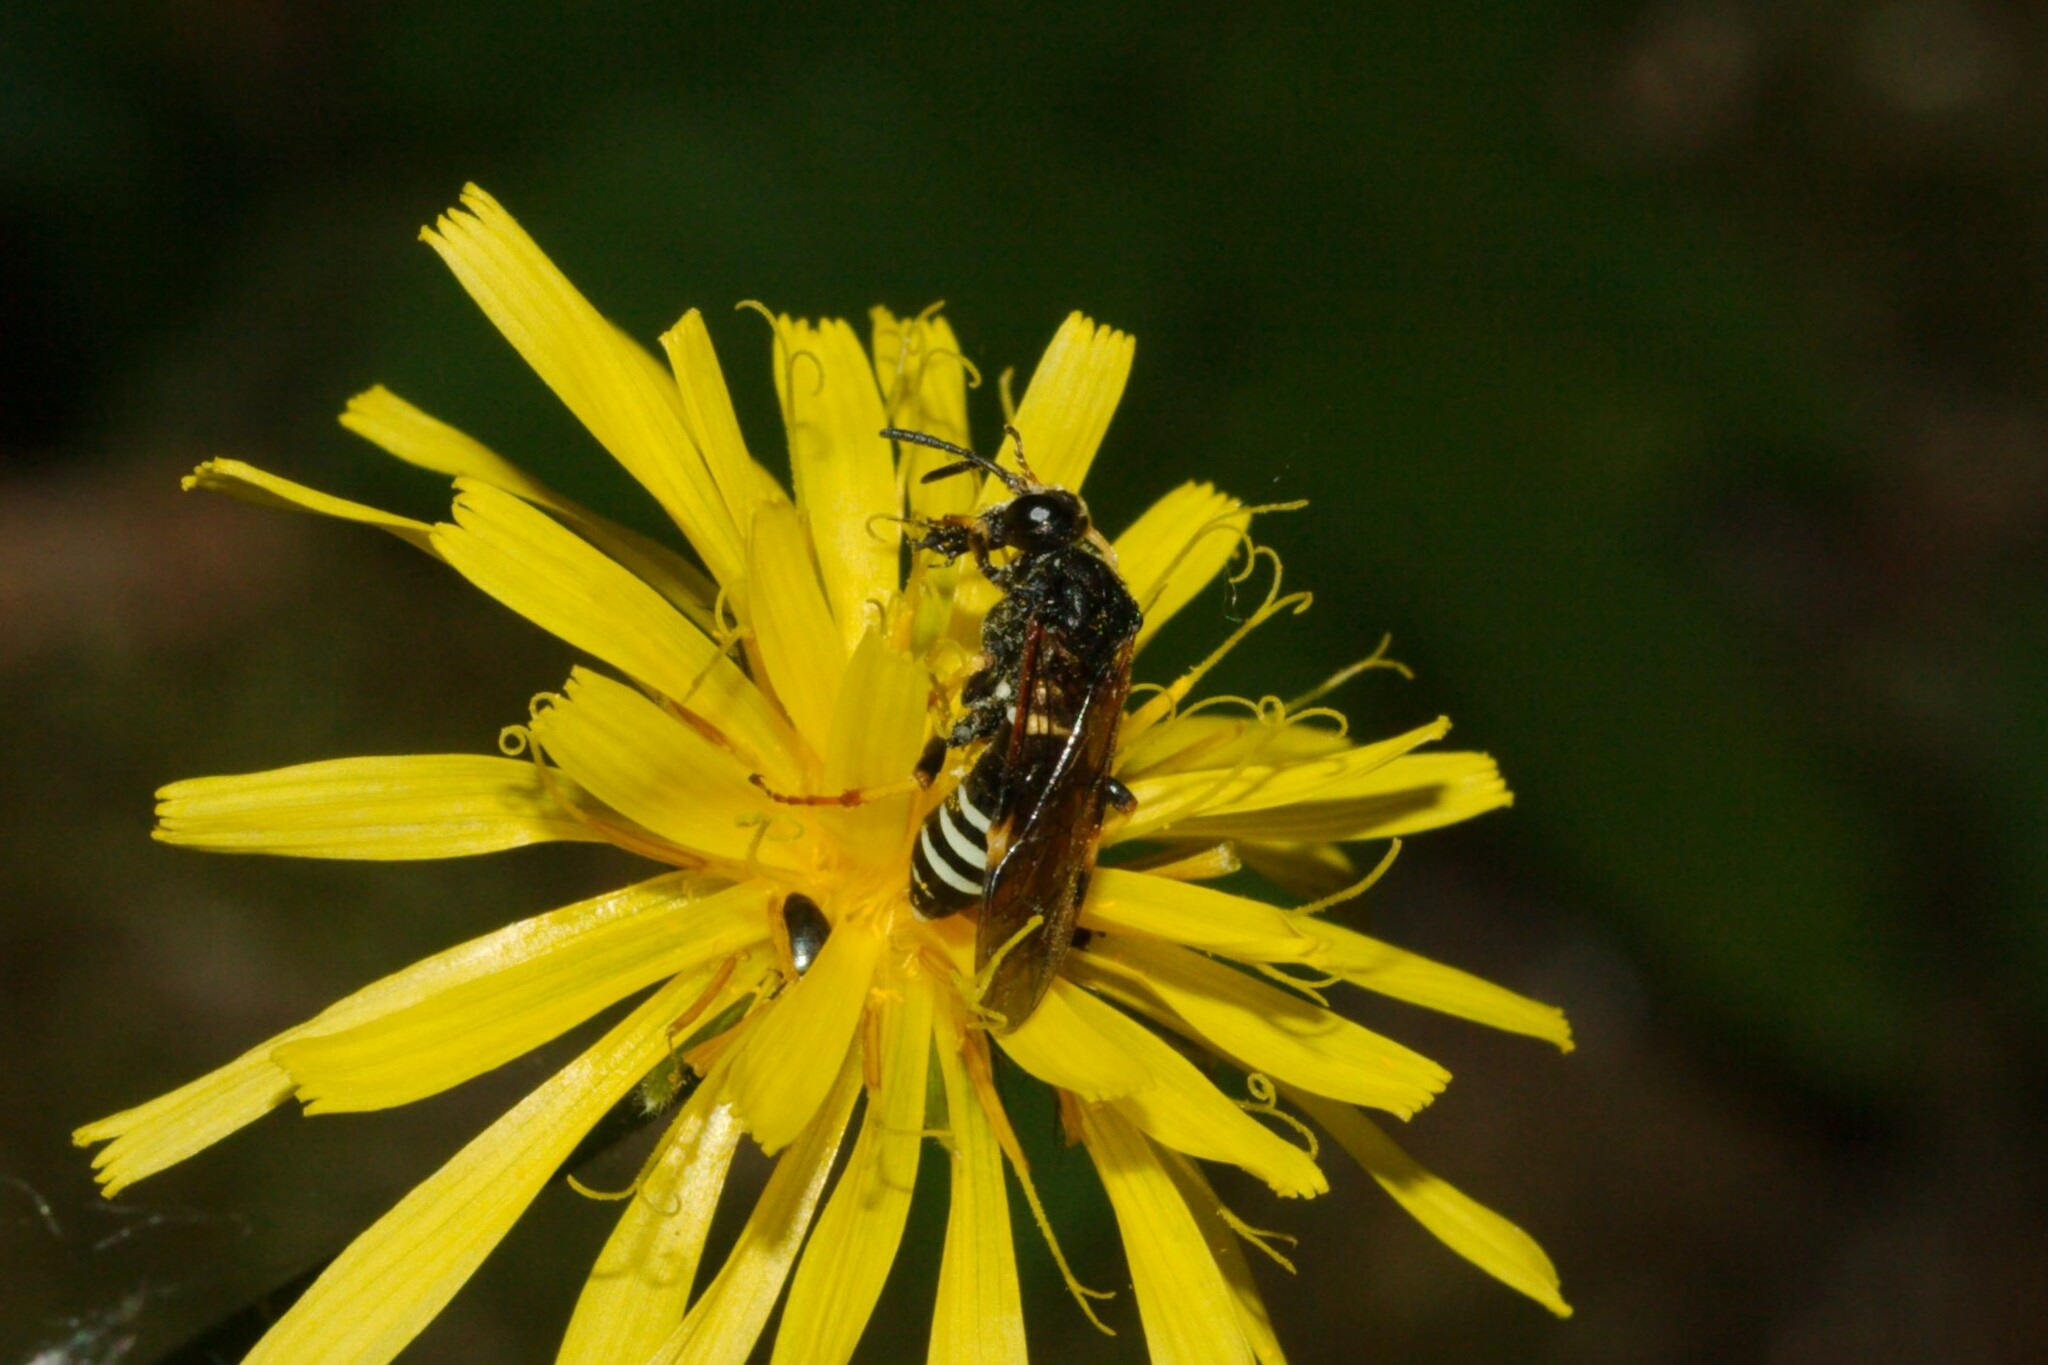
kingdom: Animalia
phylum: Arthropoda
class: Insecta
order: Hymenoptera
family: Tenthredinidae
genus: Tenthredo
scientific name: Tenthredo koehleri
